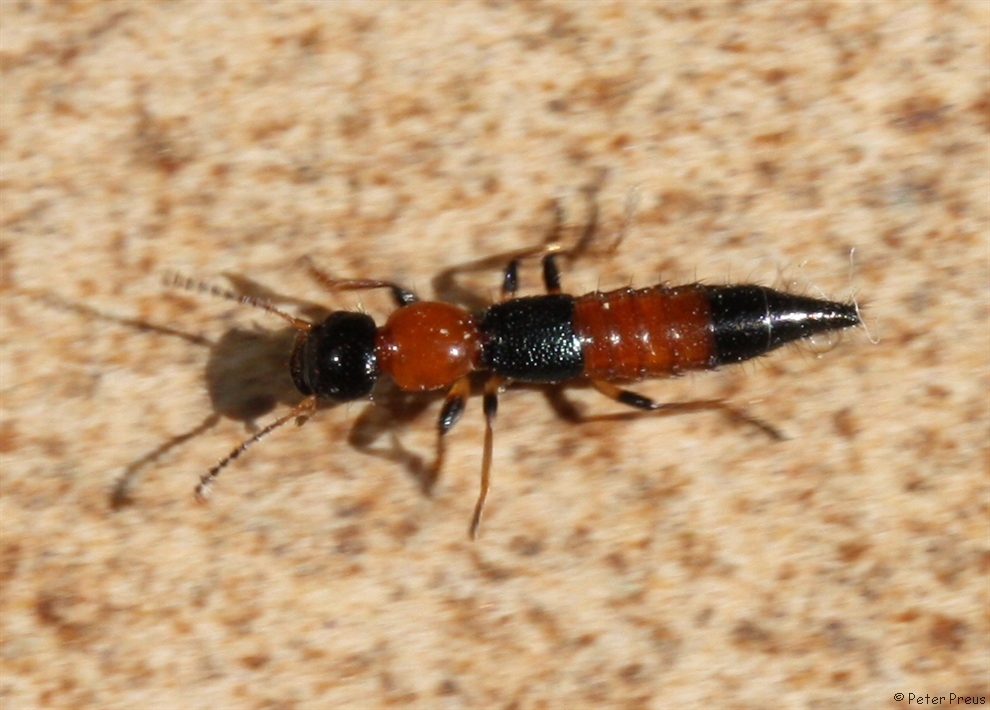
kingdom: Animalia
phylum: Arthropoda
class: Insecta
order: Coleoptera
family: Staphylinidae
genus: Paederus
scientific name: Paederus littoralis
